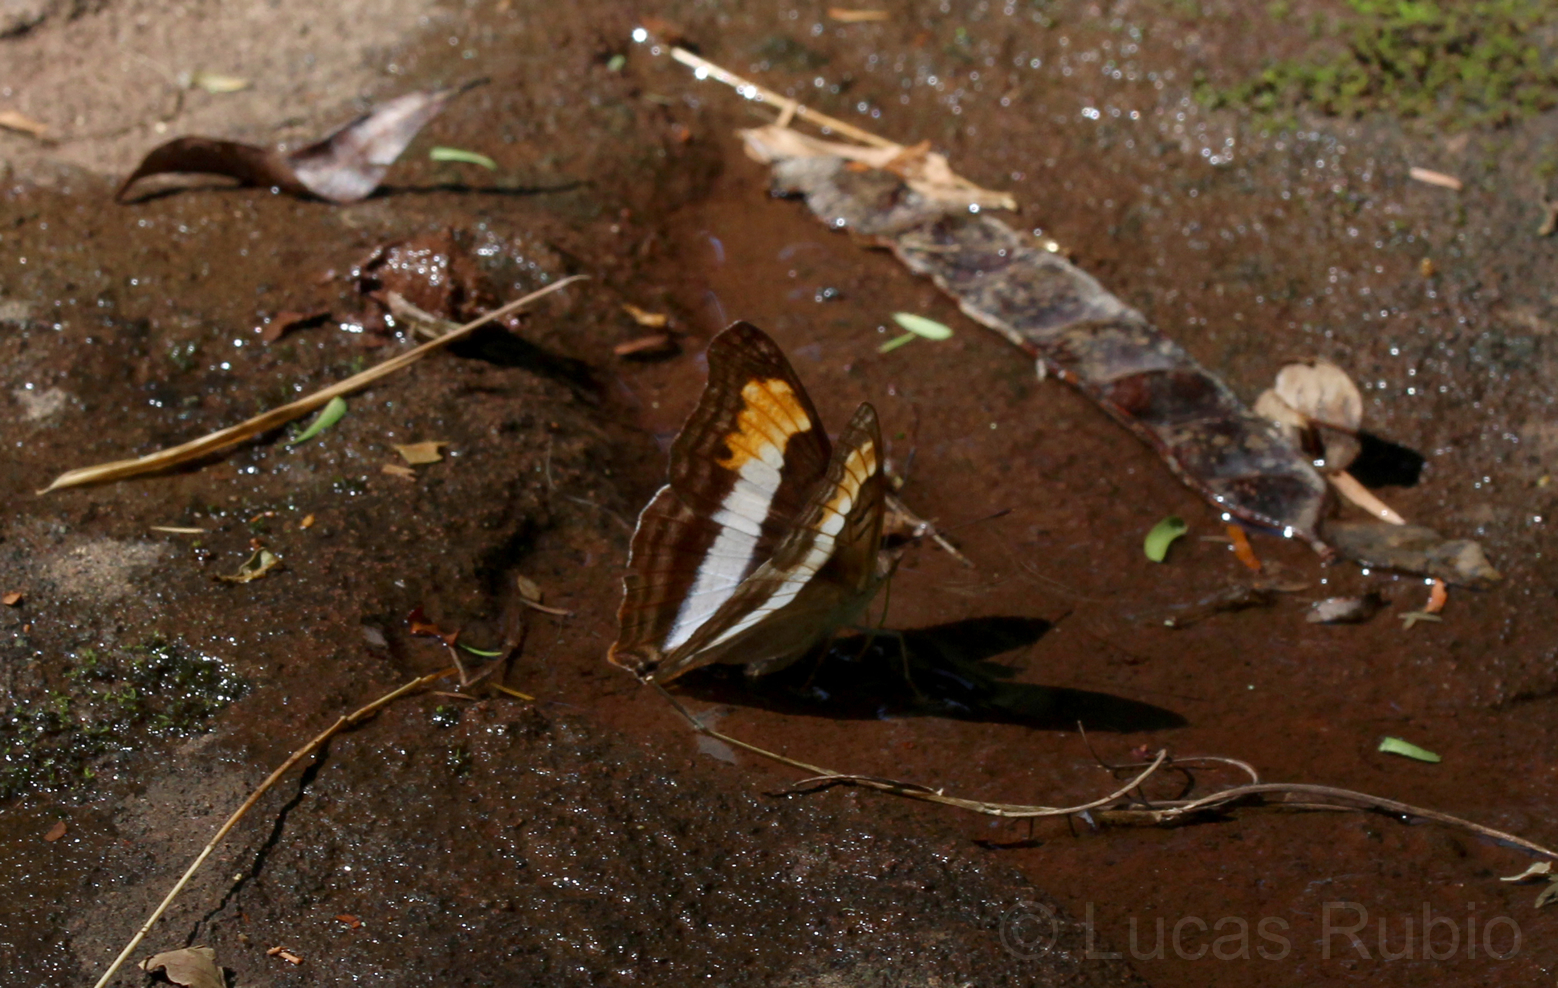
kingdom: Animalia
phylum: Arthropoda
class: Insecta
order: Lepidoptera
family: Nymphalidae
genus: Doxocopa
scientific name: Doxocopa laurentia
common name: Turquoise emperor
